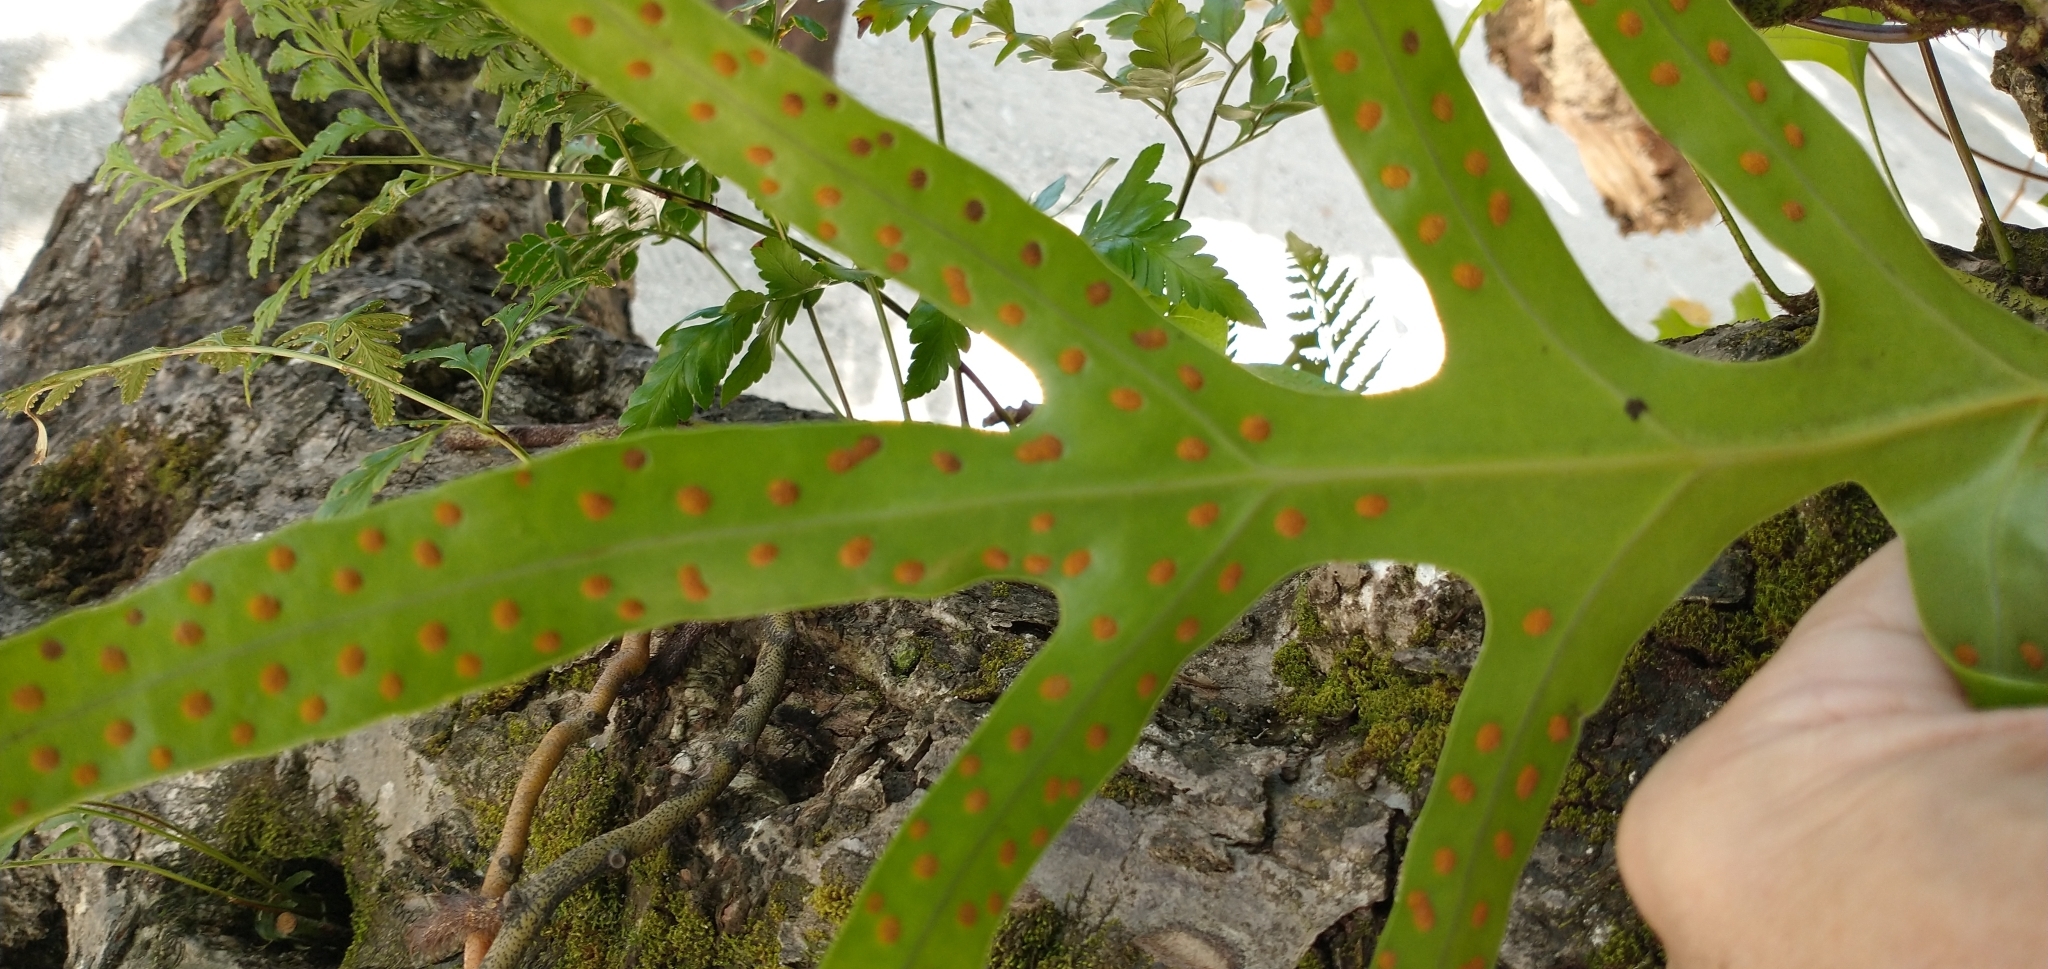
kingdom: Plantae
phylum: Tracheophyta
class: Polypodiopsida
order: Polypodiales
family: Polypodiaceae
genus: Microsorum
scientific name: Microsorum scolopendria
